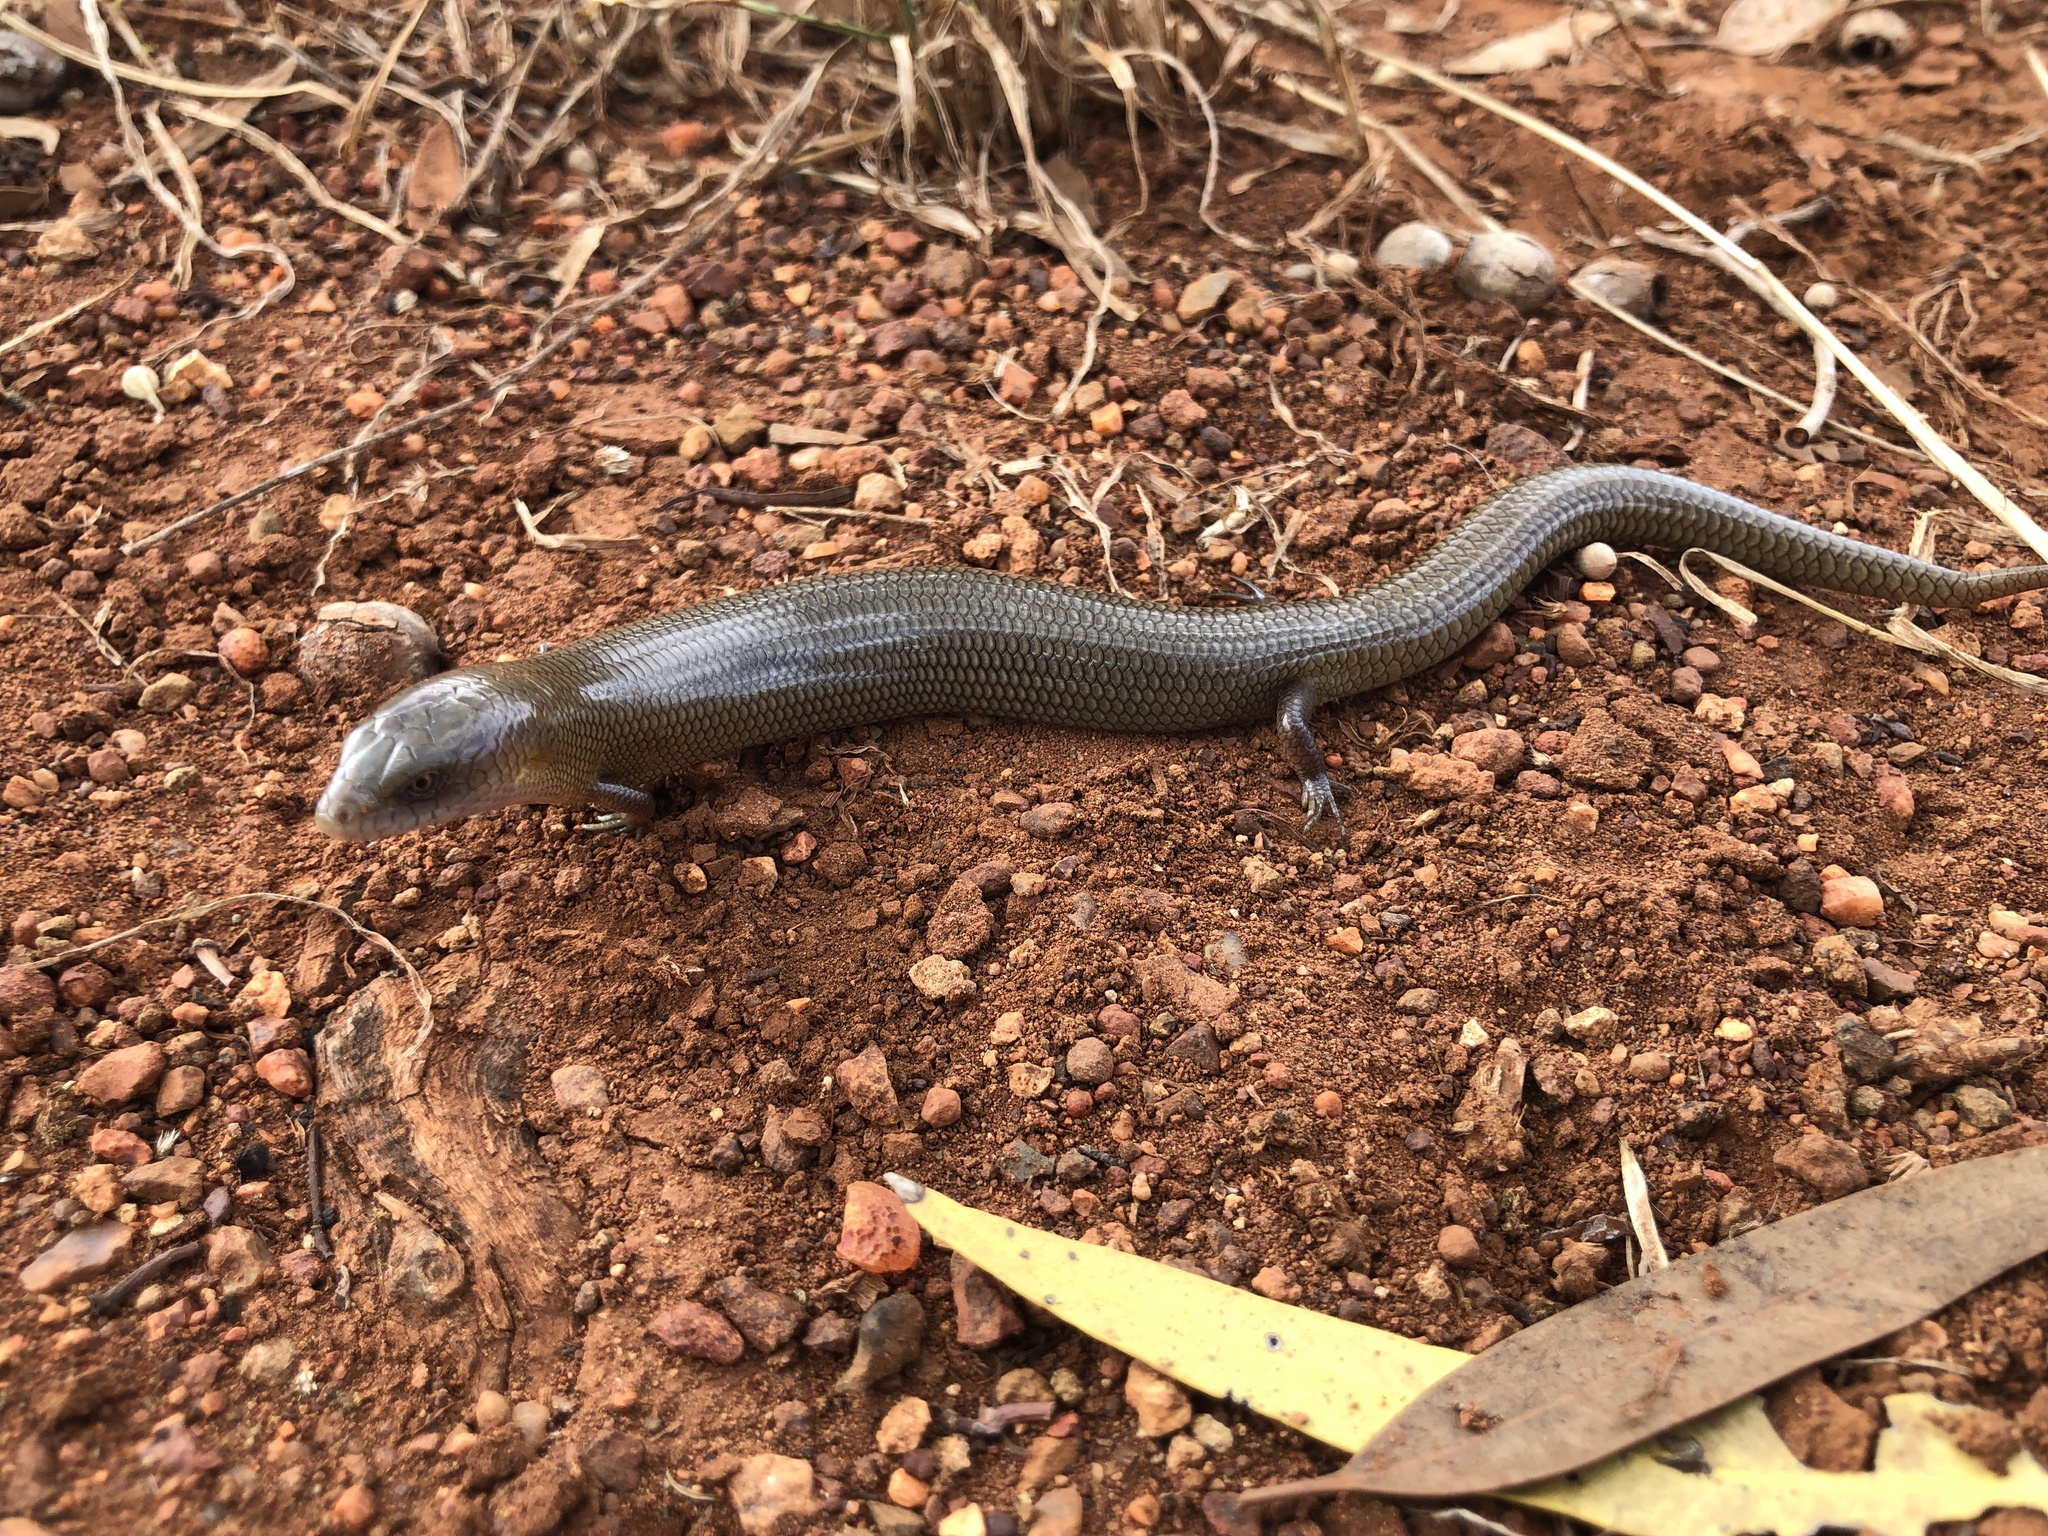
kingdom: Animalia
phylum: Chordata
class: Squamata
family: Scincidae
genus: Cyclodomorphus
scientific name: Cyclodomorphus melanops
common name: Samphire slender bluetongue
